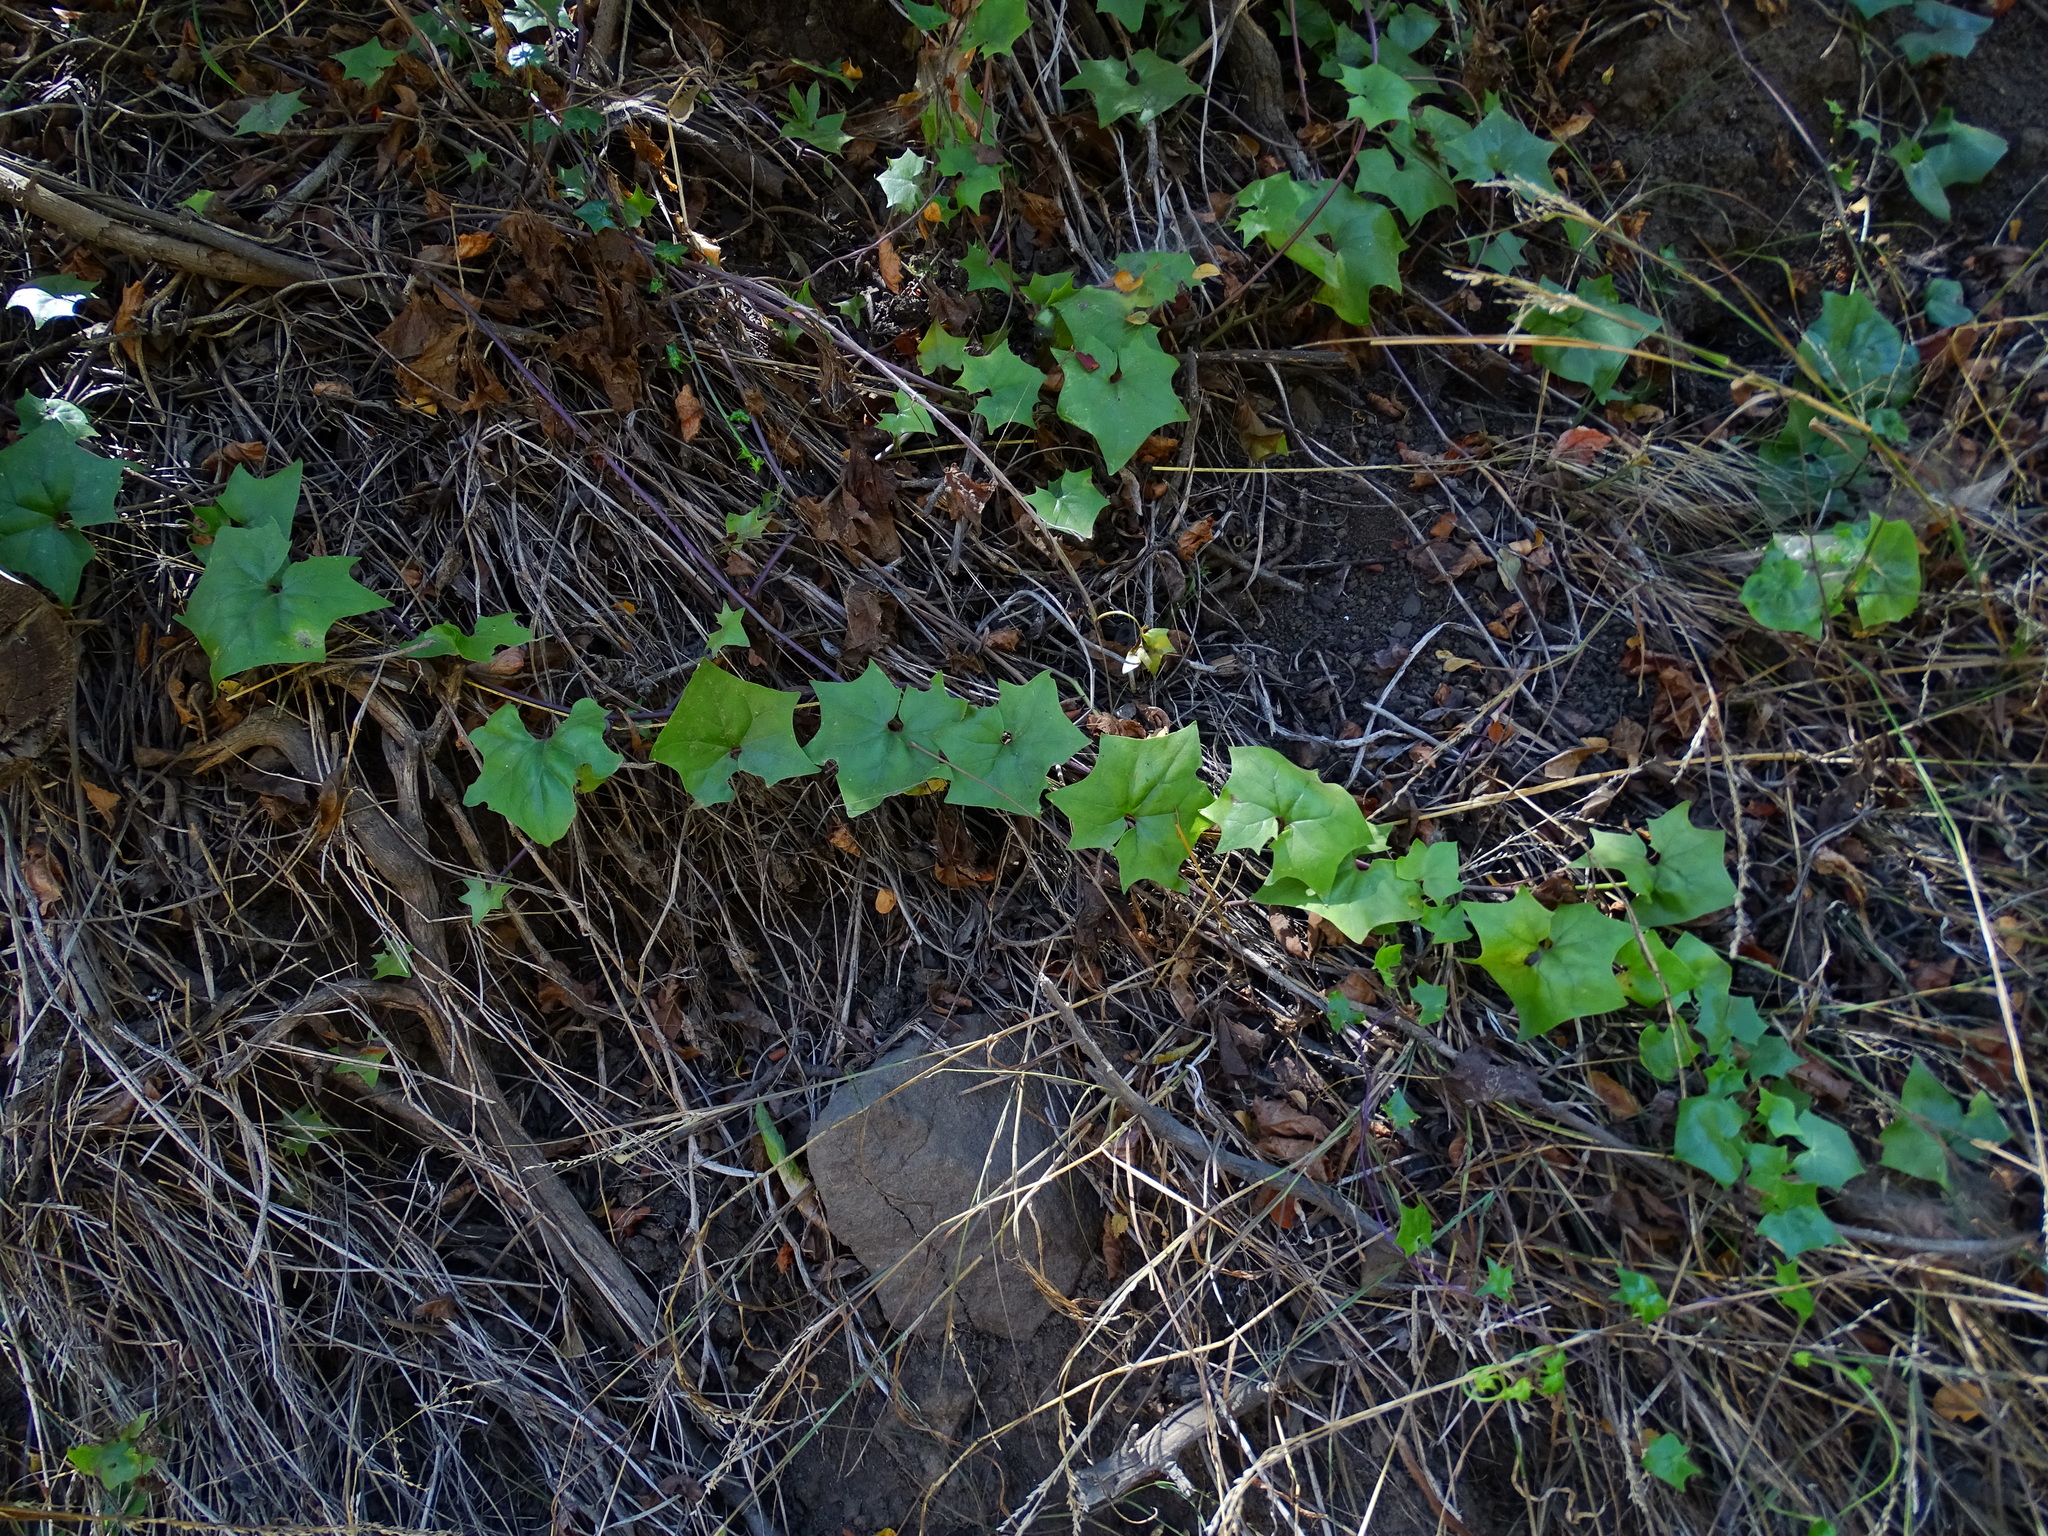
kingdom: Plantae
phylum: Tracheophyta
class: Magnoliopsida
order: Asterales
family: Asteraceae
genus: Delairea
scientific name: Delairea odorata
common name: Cape-ivy
